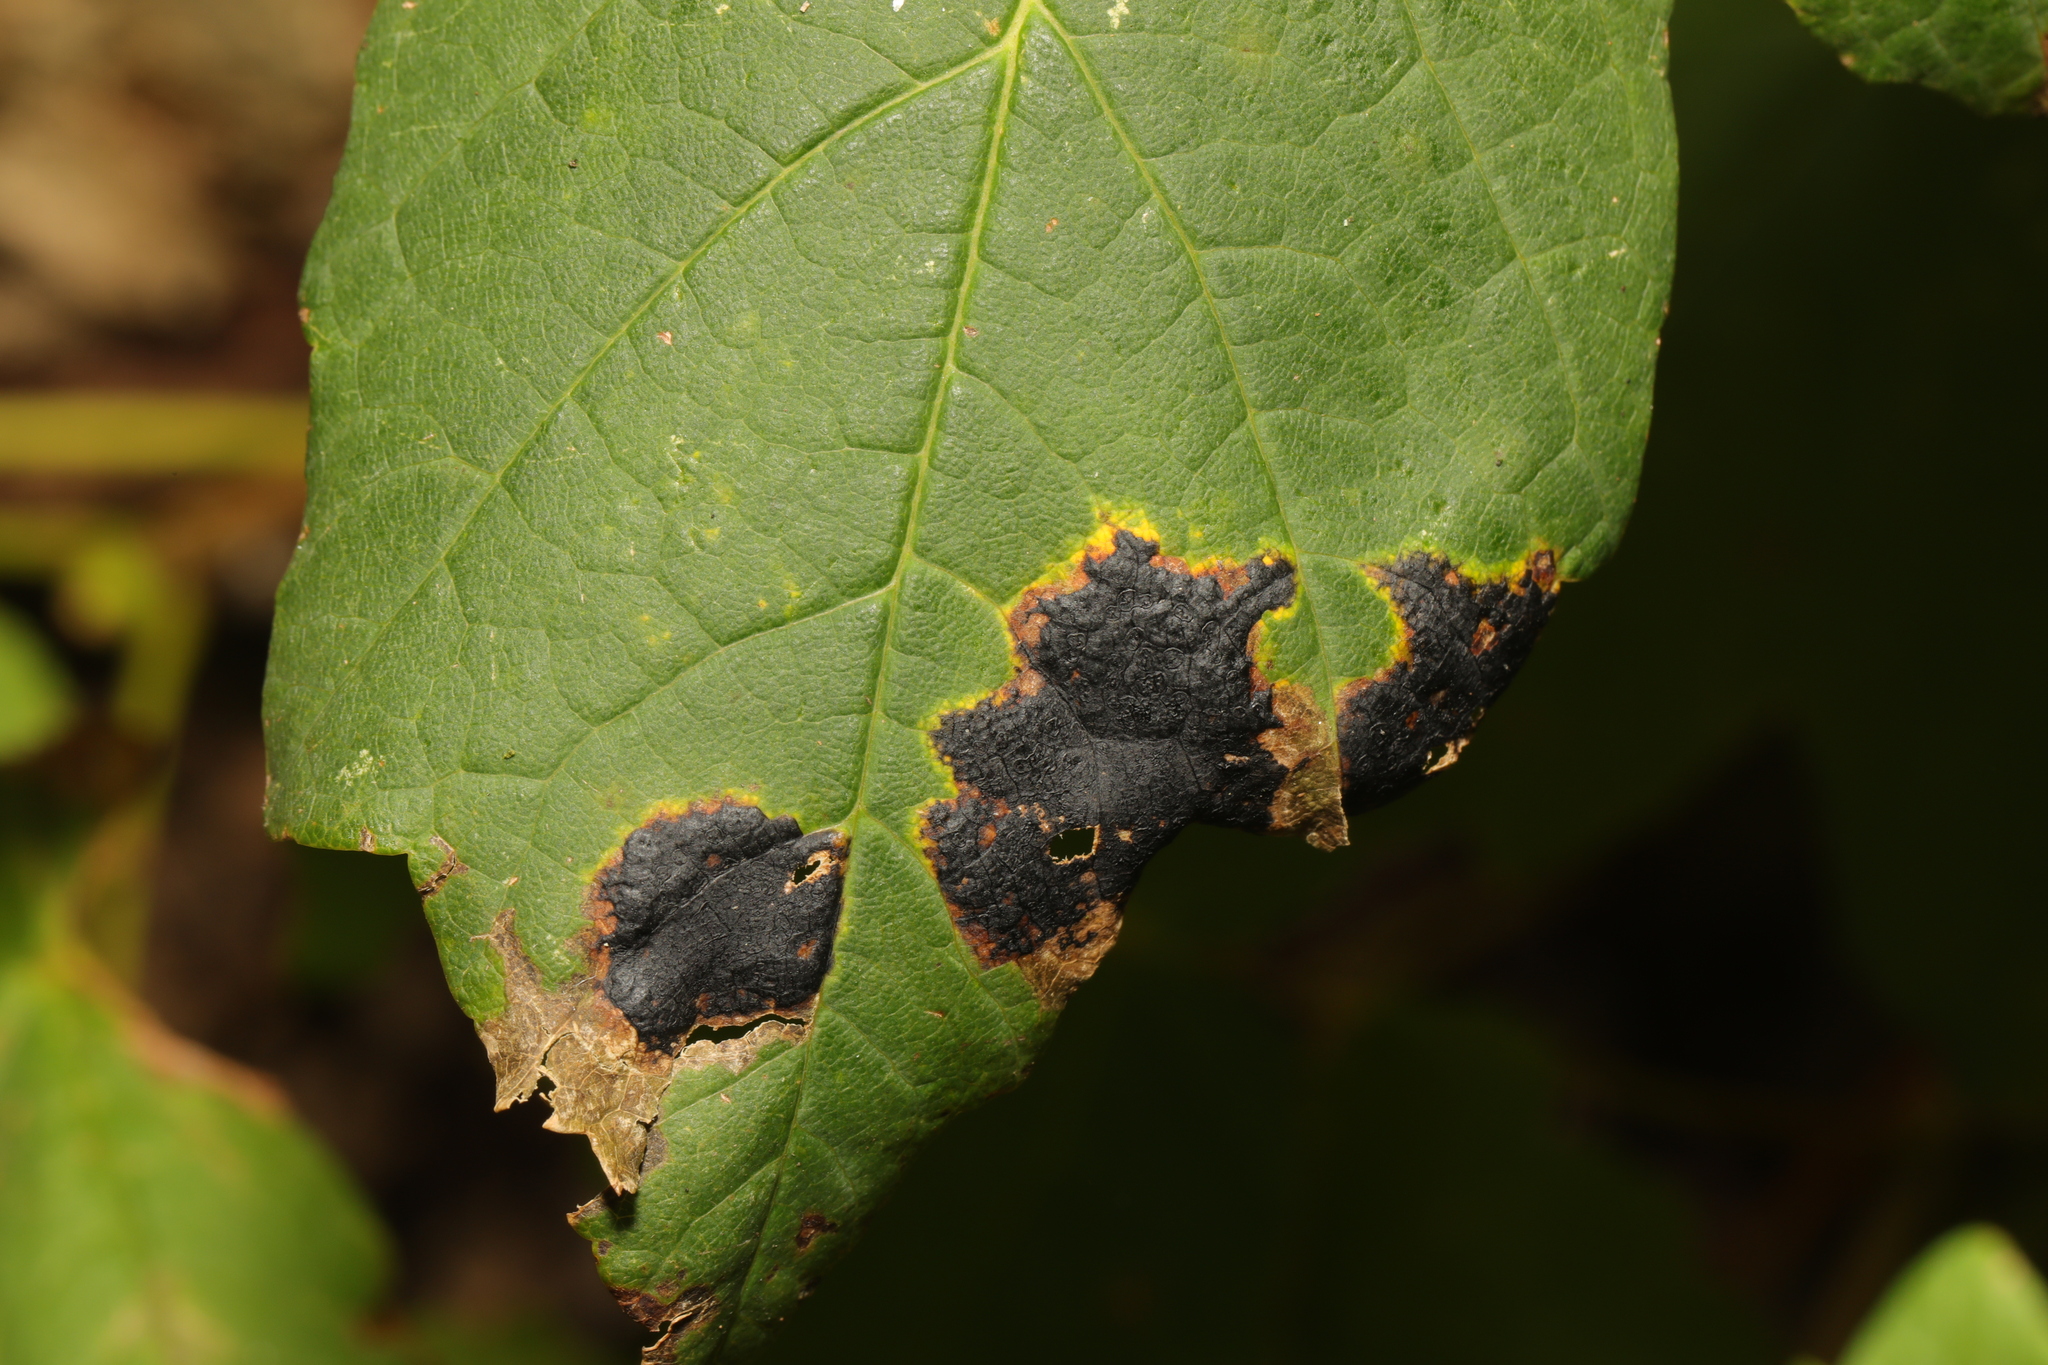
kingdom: Fungi
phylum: Ascomycota
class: Leotiomycetes
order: Rhytismatales
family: Rhytismataceae
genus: Rhytisma
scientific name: Rhytisma acerinum
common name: European tar spot
